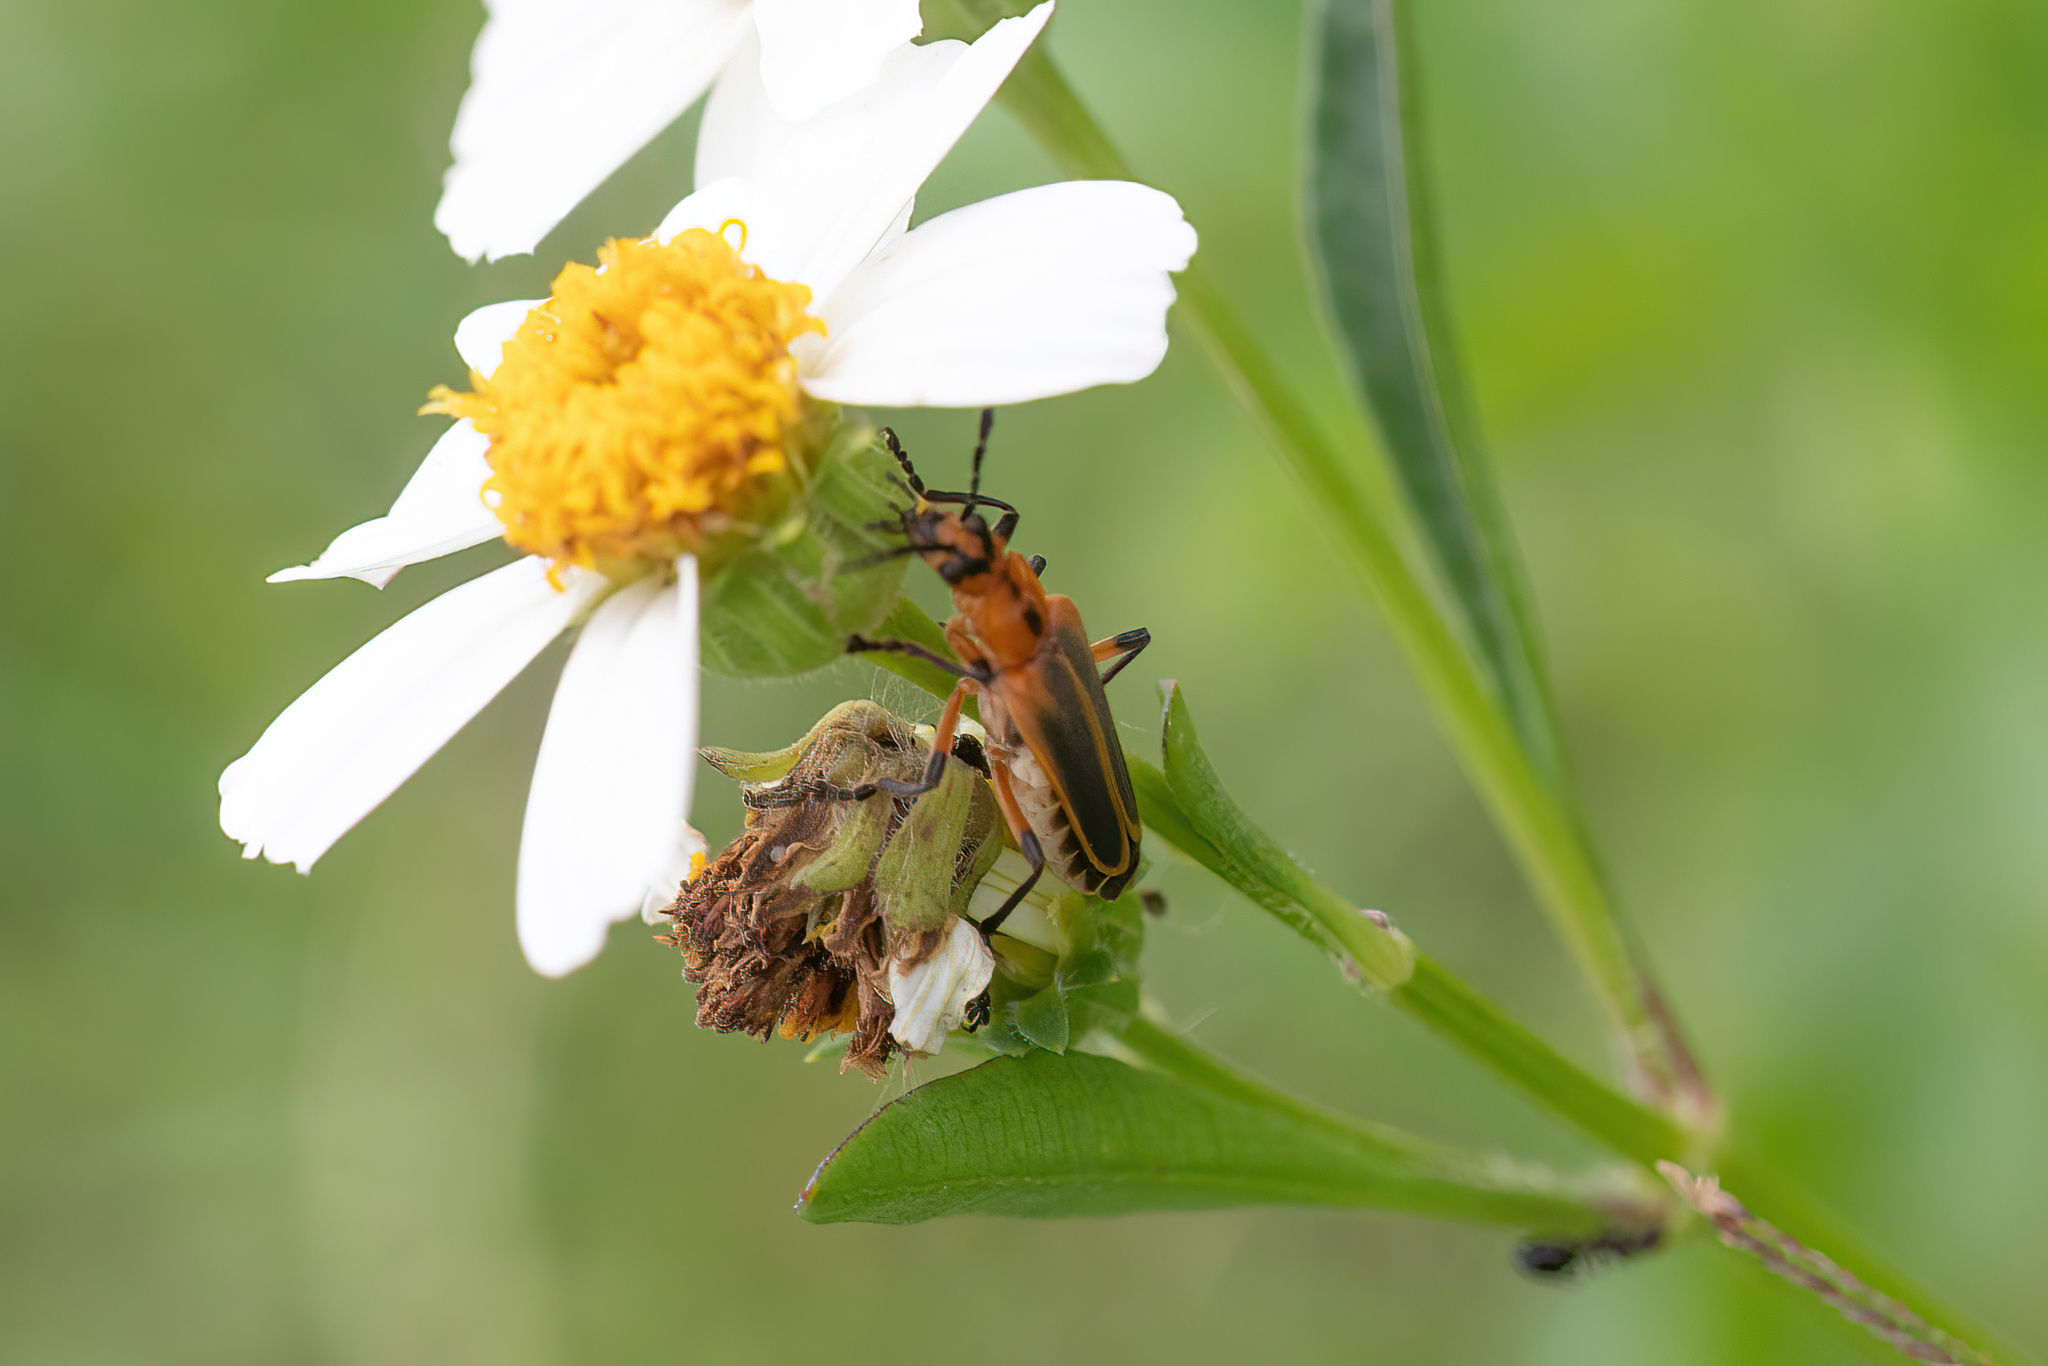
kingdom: Animalia
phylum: Arthropoda
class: Insecta
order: Coleoptera
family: Cantharidae
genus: Chauliognathus
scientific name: Chauliognathus marginatus
